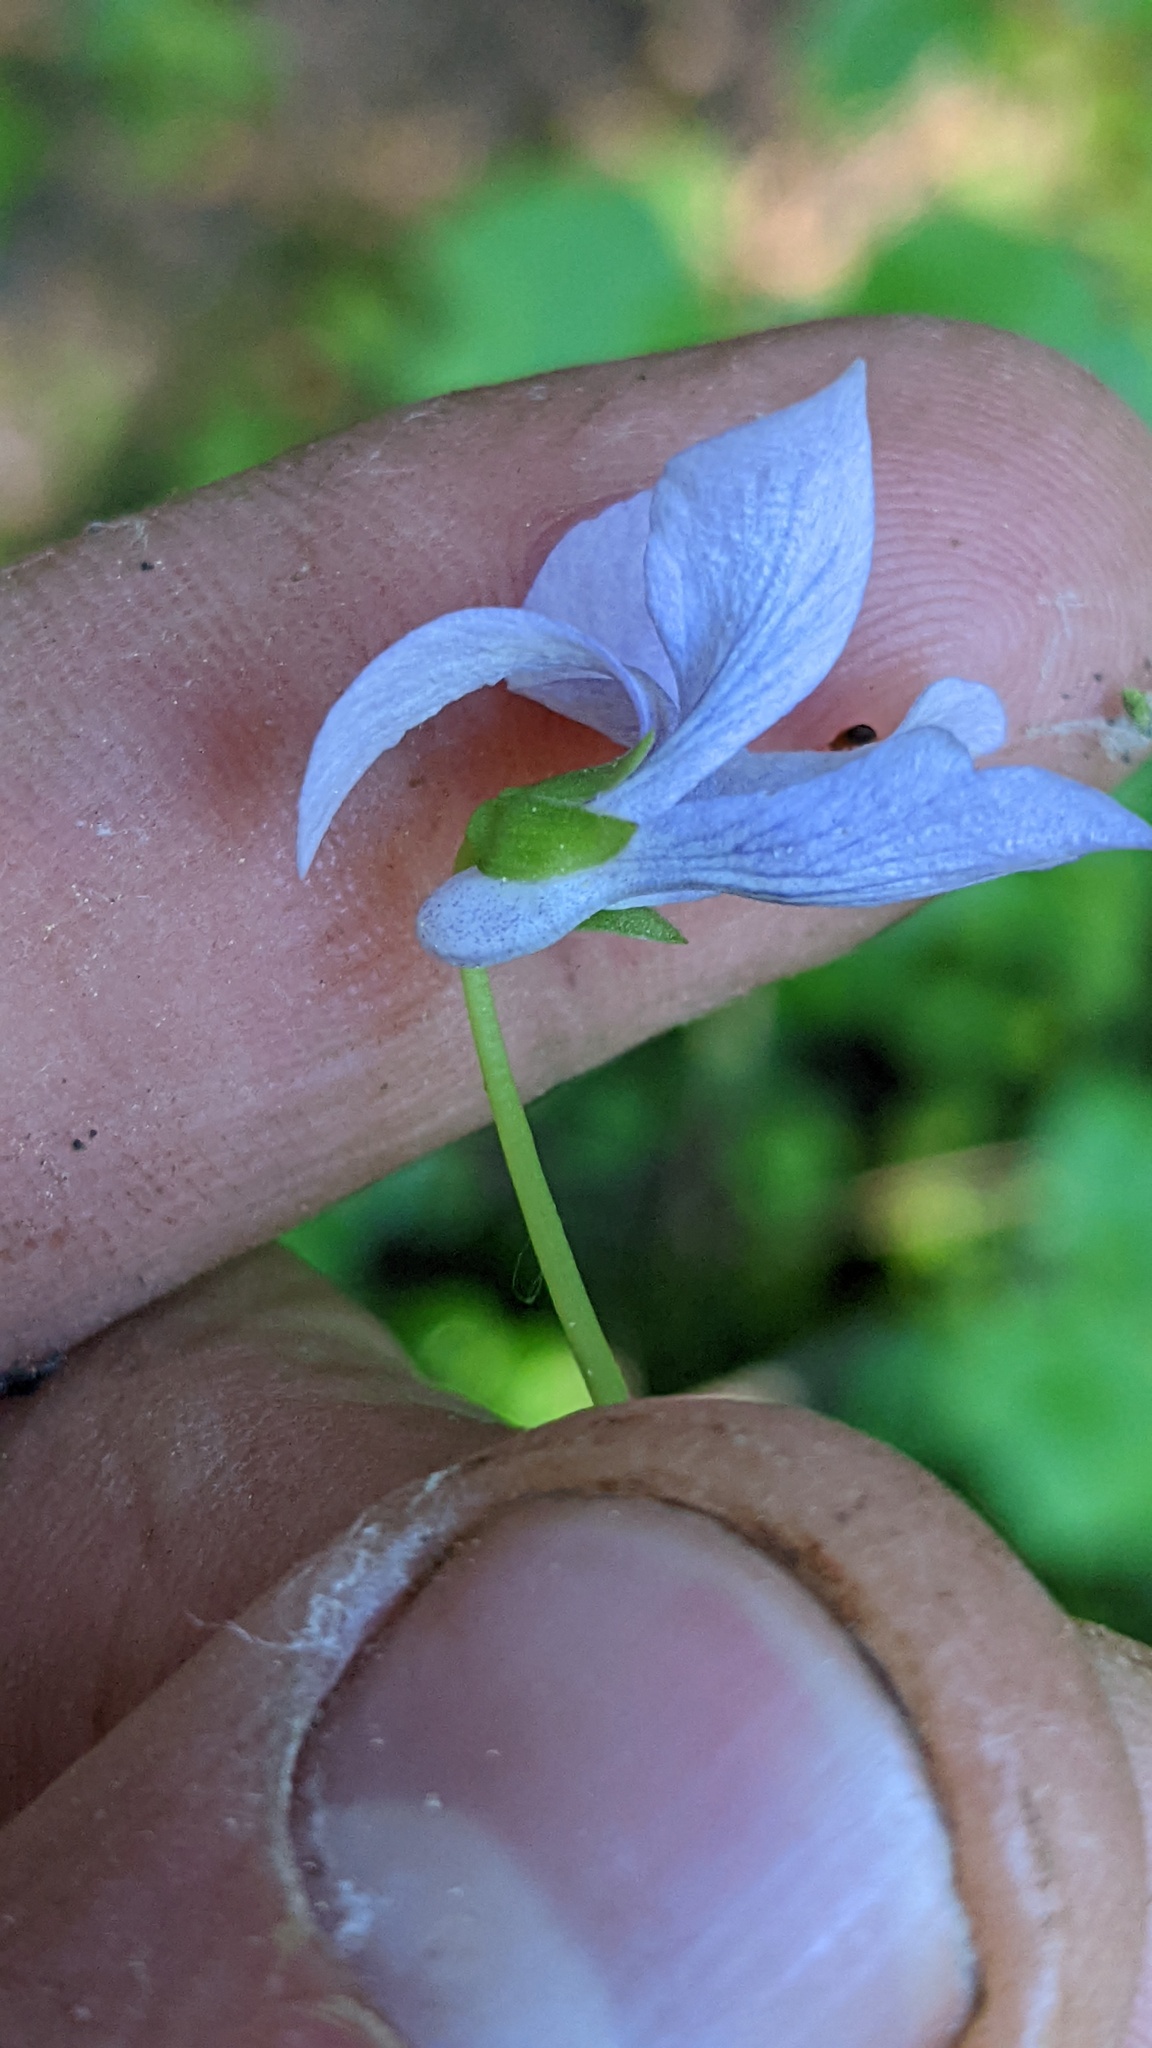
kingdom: Plantae
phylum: Tracheophyta
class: Magnoliopsida
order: Malpighiales
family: Violaceae
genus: Viola
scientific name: Viola palustris
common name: Marsh violet
